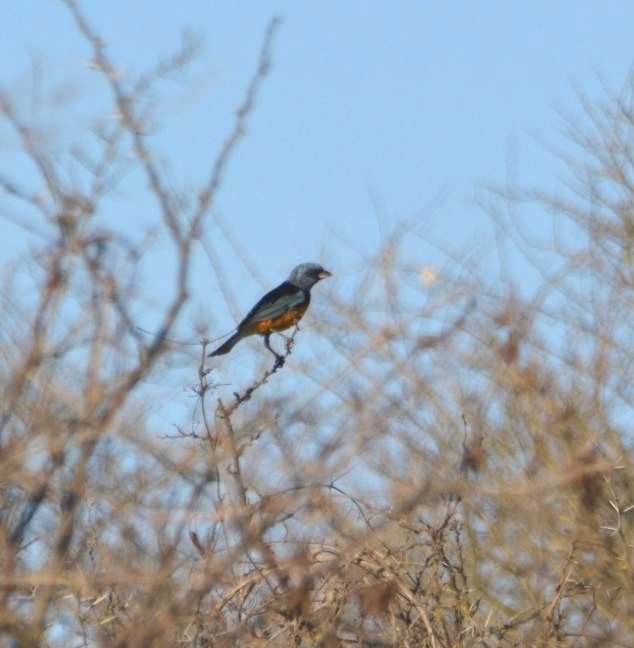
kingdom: Animalia
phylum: Chordata
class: Aves
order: Passeriformes
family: Thraupidae
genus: Rauenia
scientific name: Rauenia bonariensis
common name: Blue-and-yellow tanager
